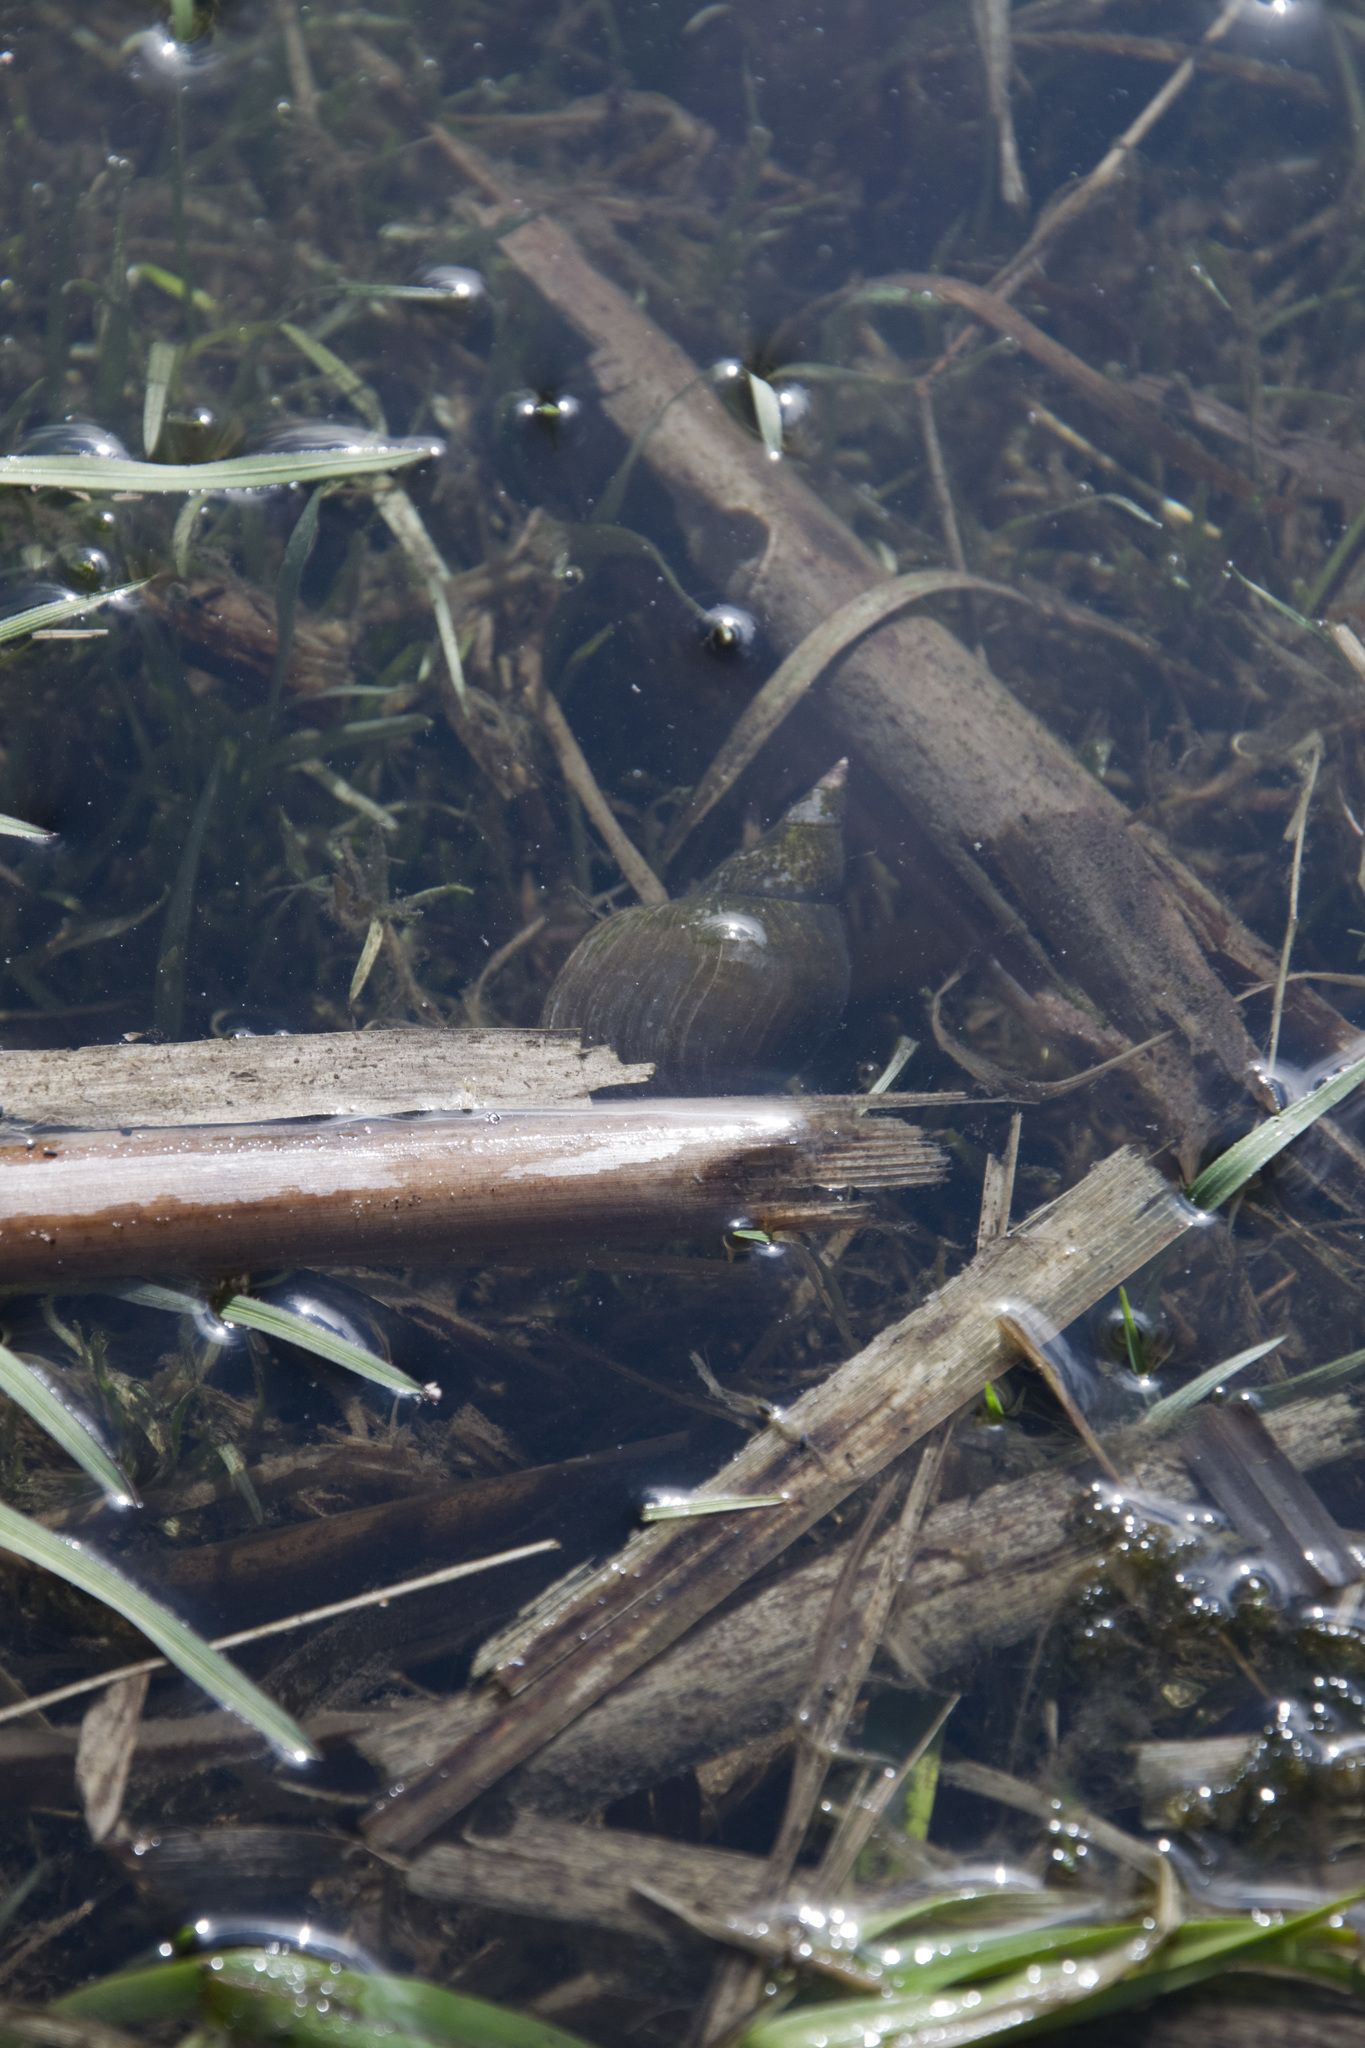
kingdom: Animalia
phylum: Mollusca
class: Gastropoda
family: Lymnaeidae
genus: Lymnaea
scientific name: Lymnaea stagnalis
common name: Great pond snail
